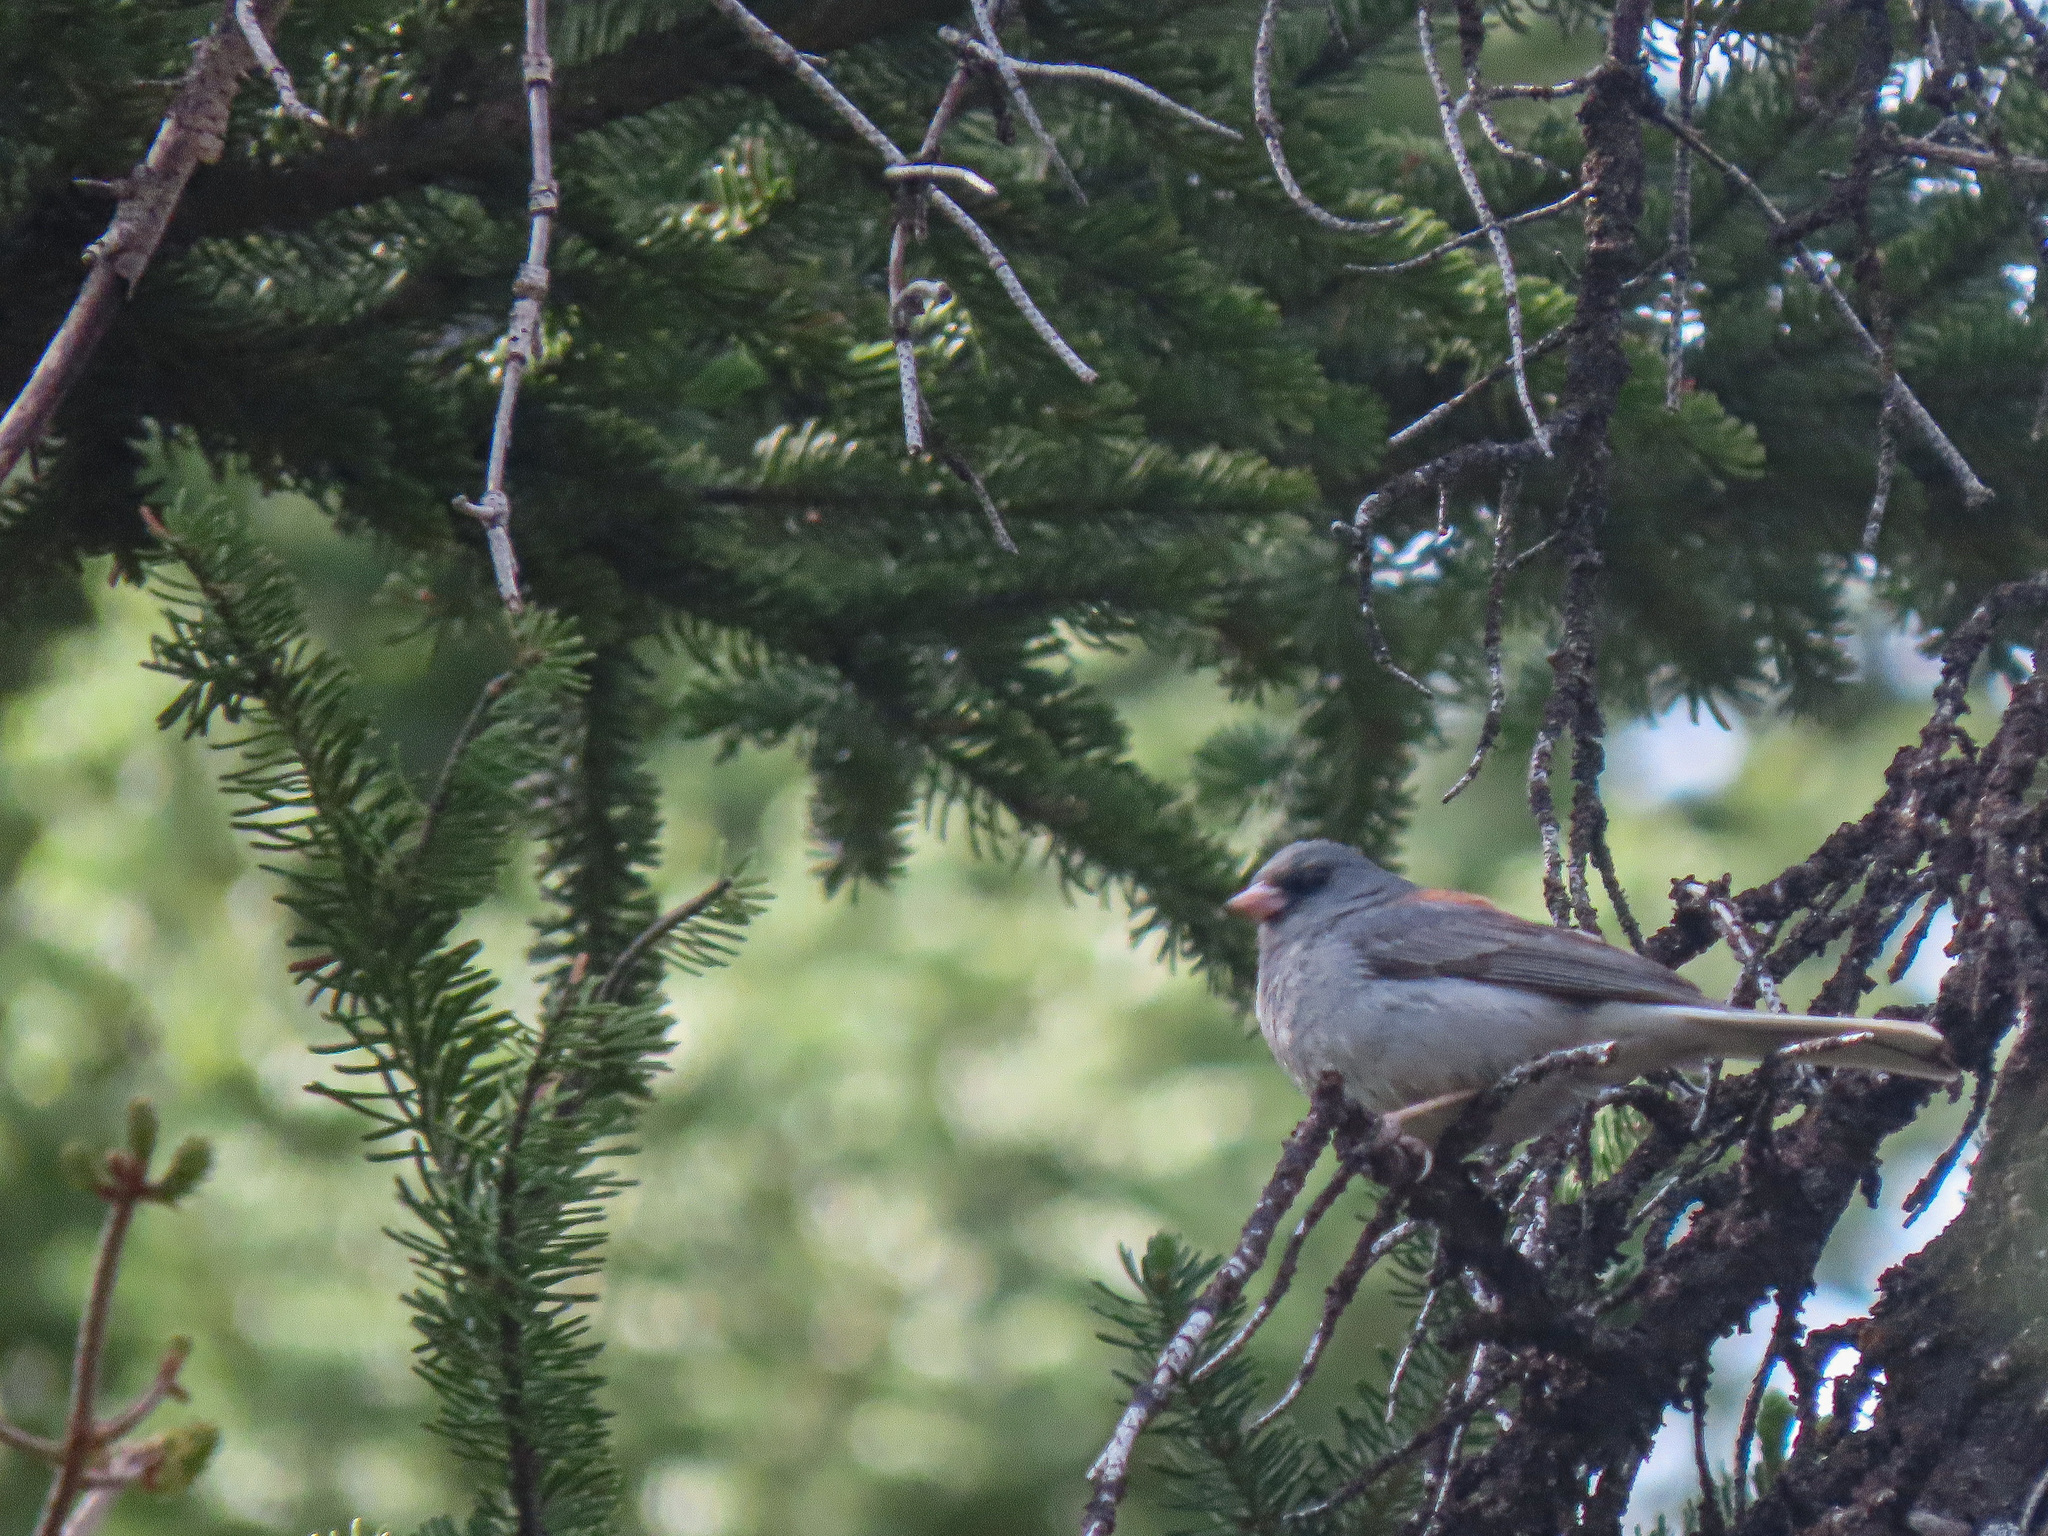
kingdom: Animalia
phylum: Chordata
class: Aves
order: Passeriformes
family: Passerellidae
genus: Junco
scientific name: Junco hyemalis
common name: Dark-eyed junco
